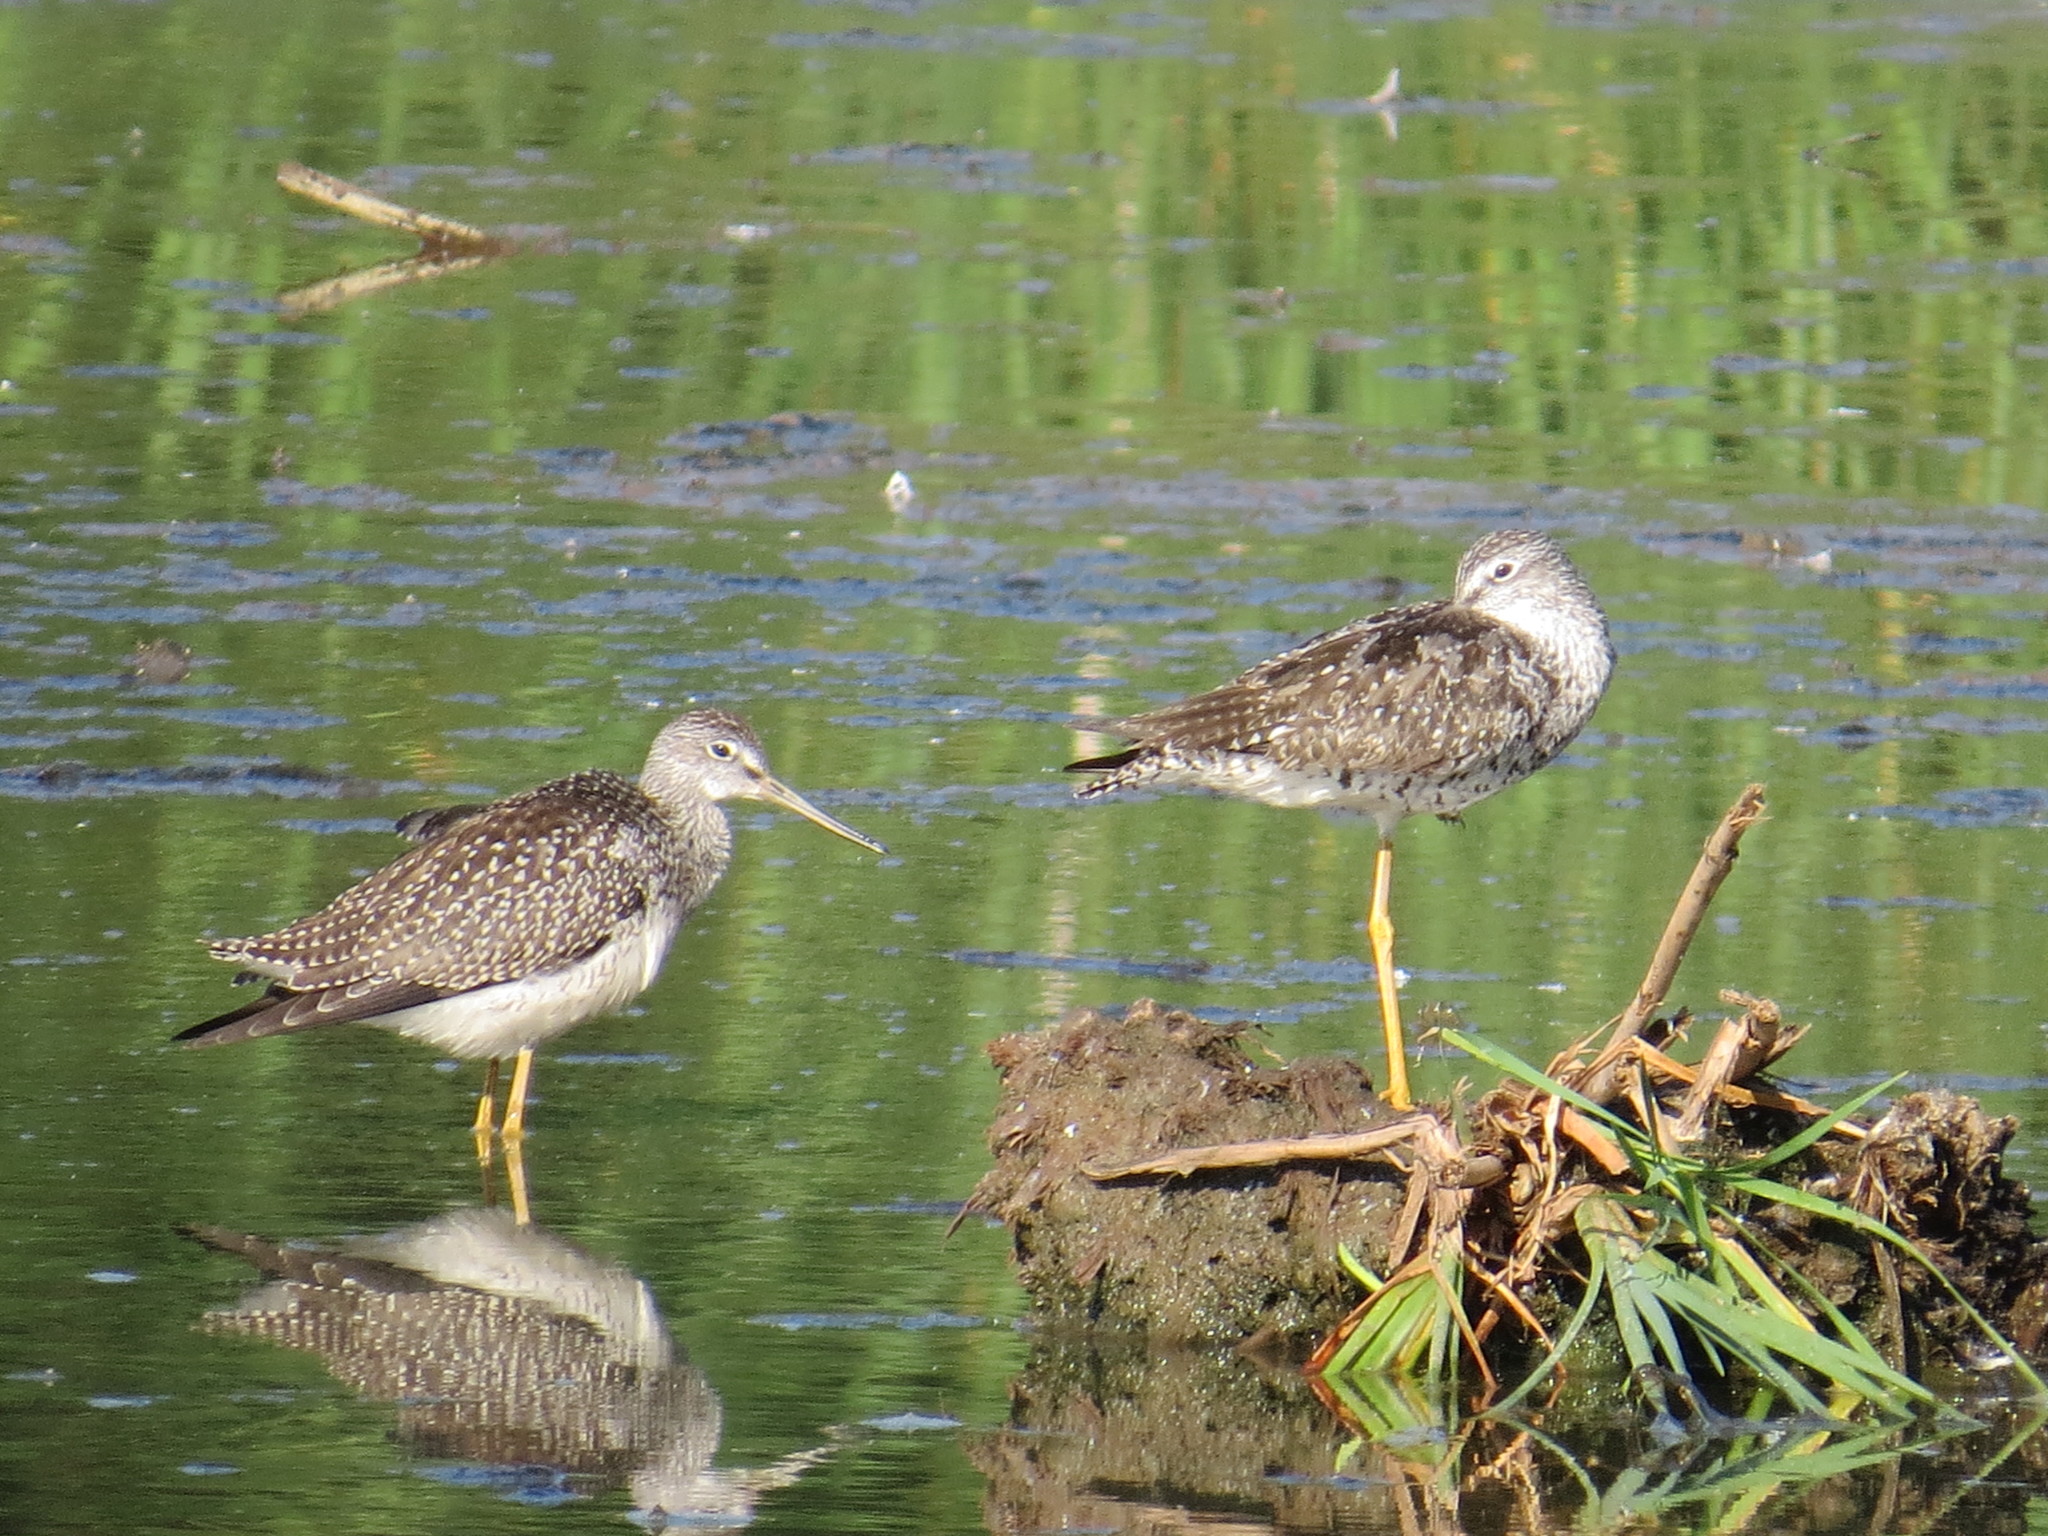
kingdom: Animalia
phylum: Chordata
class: Aves
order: Charadriiformes
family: Scolopacidae
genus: Tringa
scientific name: Tringa melanoleuca
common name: Greater yellowlegs
